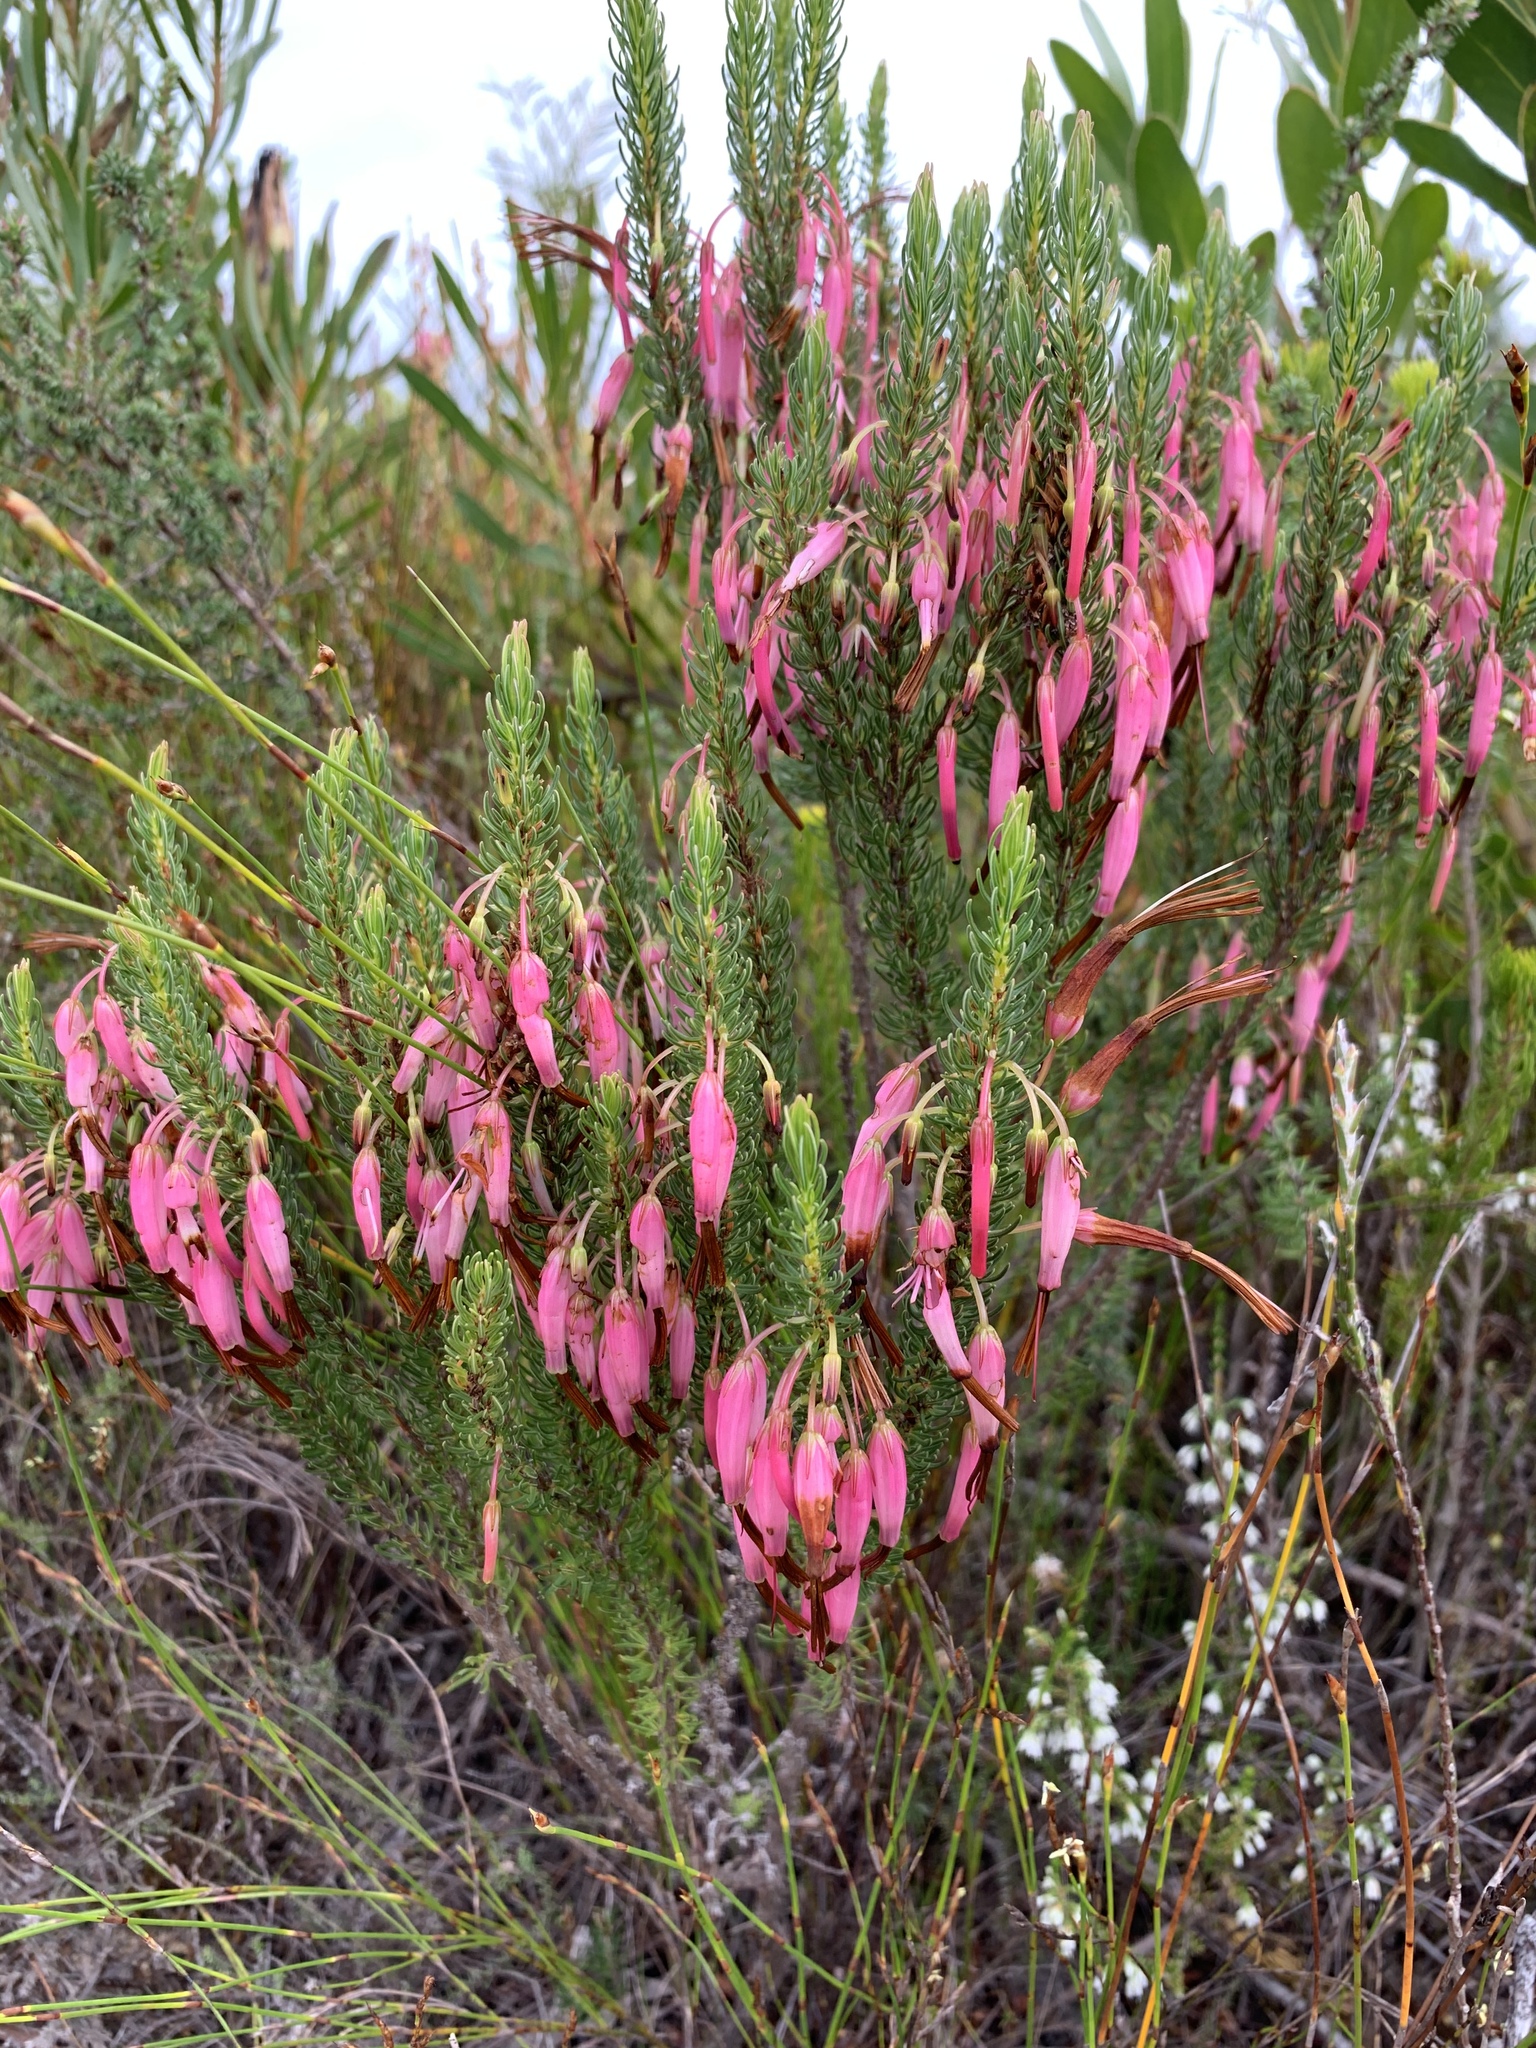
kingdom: Plantae
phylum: Tracheophyta
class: Magnoliopsida
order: Ericales
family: Ericaceae
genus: Erica
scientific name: Erica plukenetii
